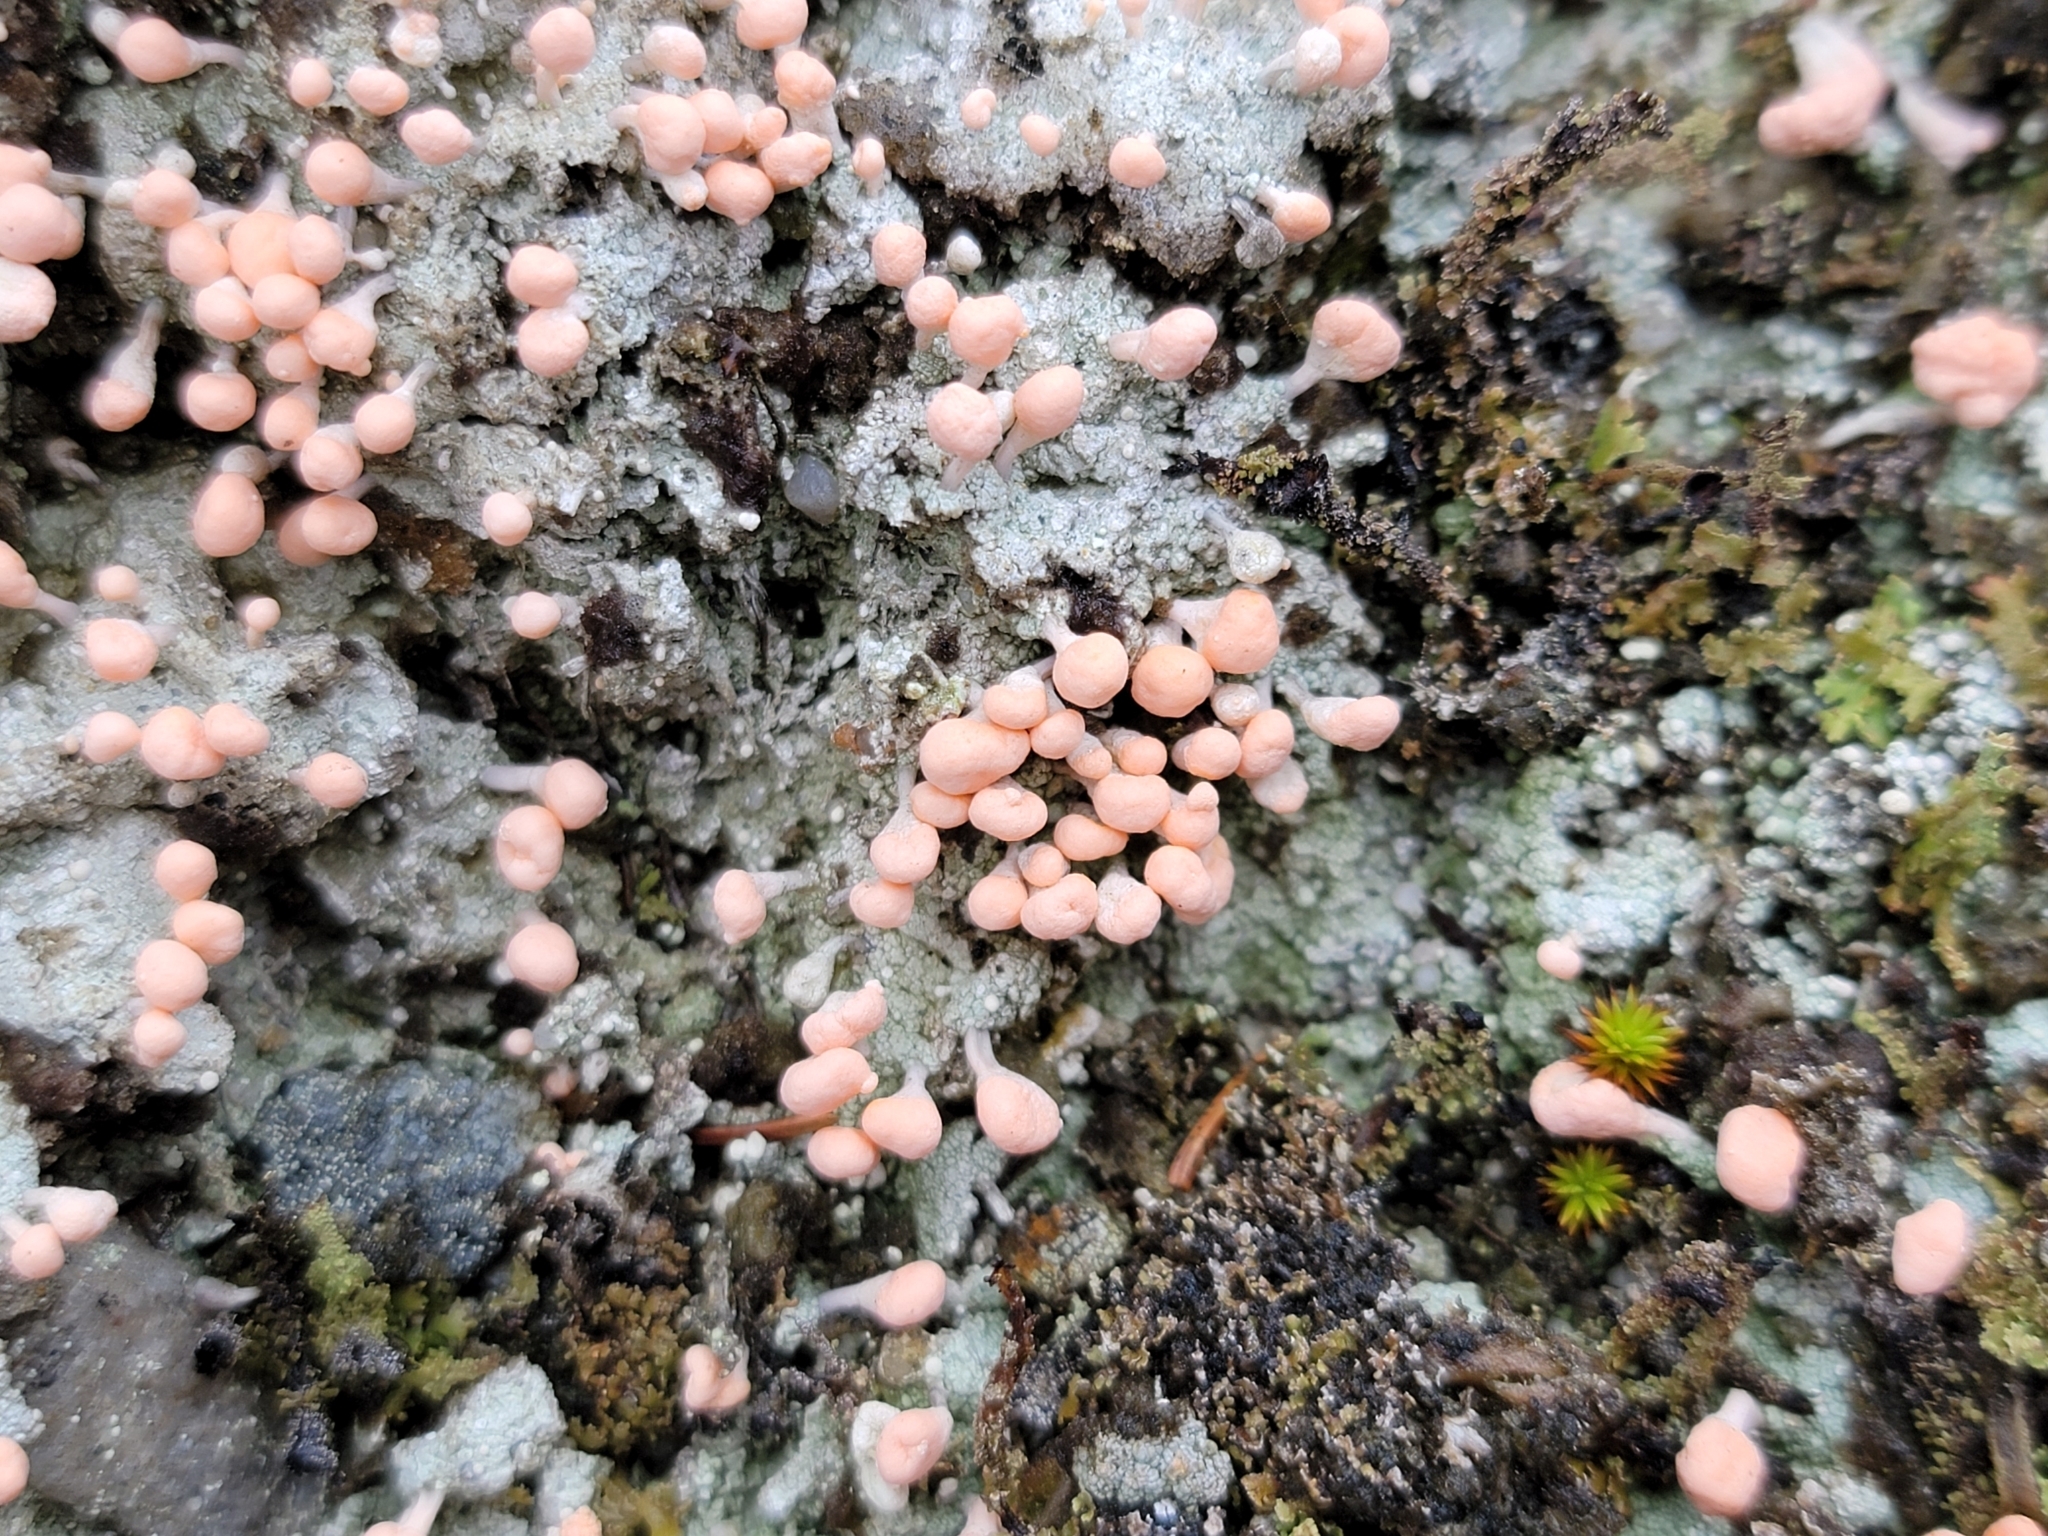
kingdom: Fungi
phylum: Ascomycota
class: Lecanoromycetes
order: Pertusariales
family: Icmadophilaceae
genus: Dibaeis
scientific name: Dibaeis baeomyces
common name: Pink earth lichen
